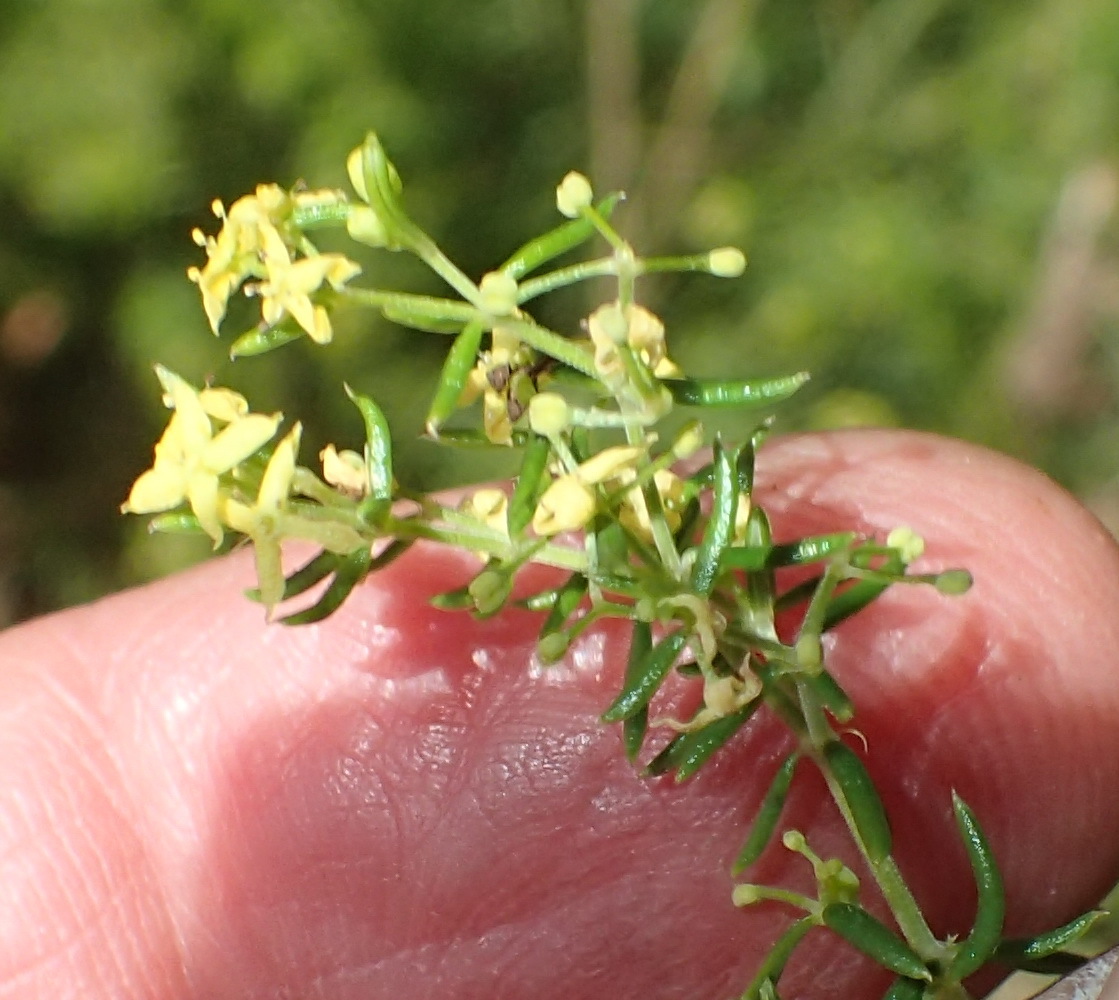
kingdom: Plantae
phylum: Tracheophyta
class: Magnoliopsida
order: Gentianales
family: Rubiaceae
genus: Galium
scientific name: Galium capense
